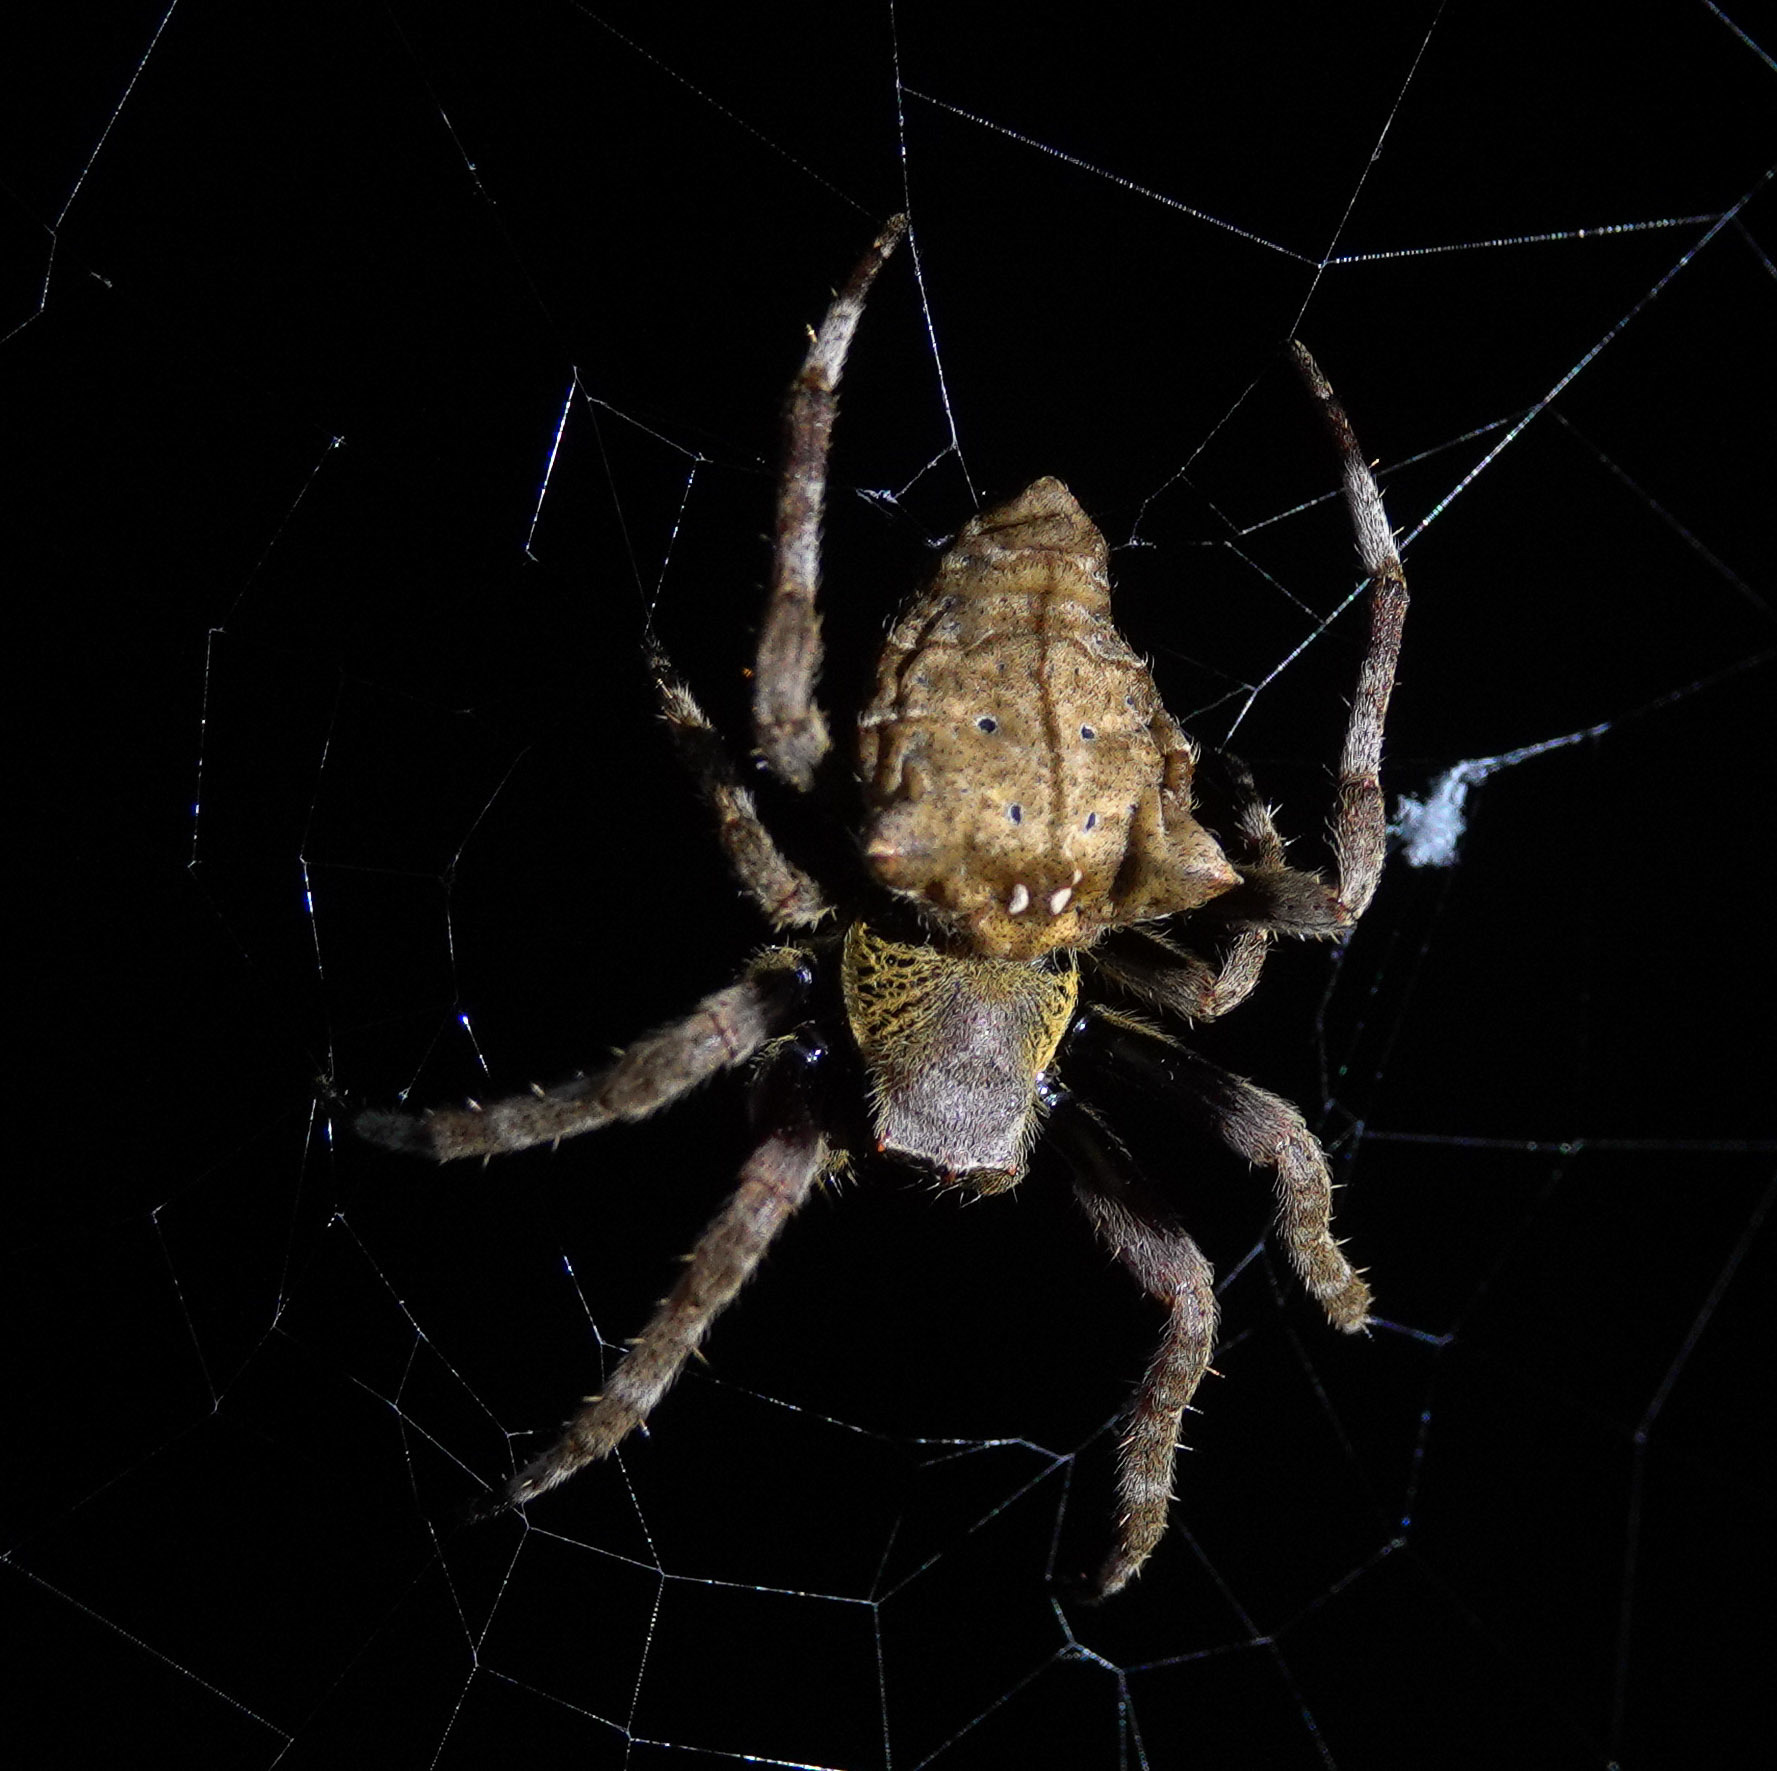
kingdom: Animalia
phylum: Arthropoda
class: Arachnida
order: Araneae
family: Araneidae
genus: Parawixia
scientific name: Parawixia dehaani
